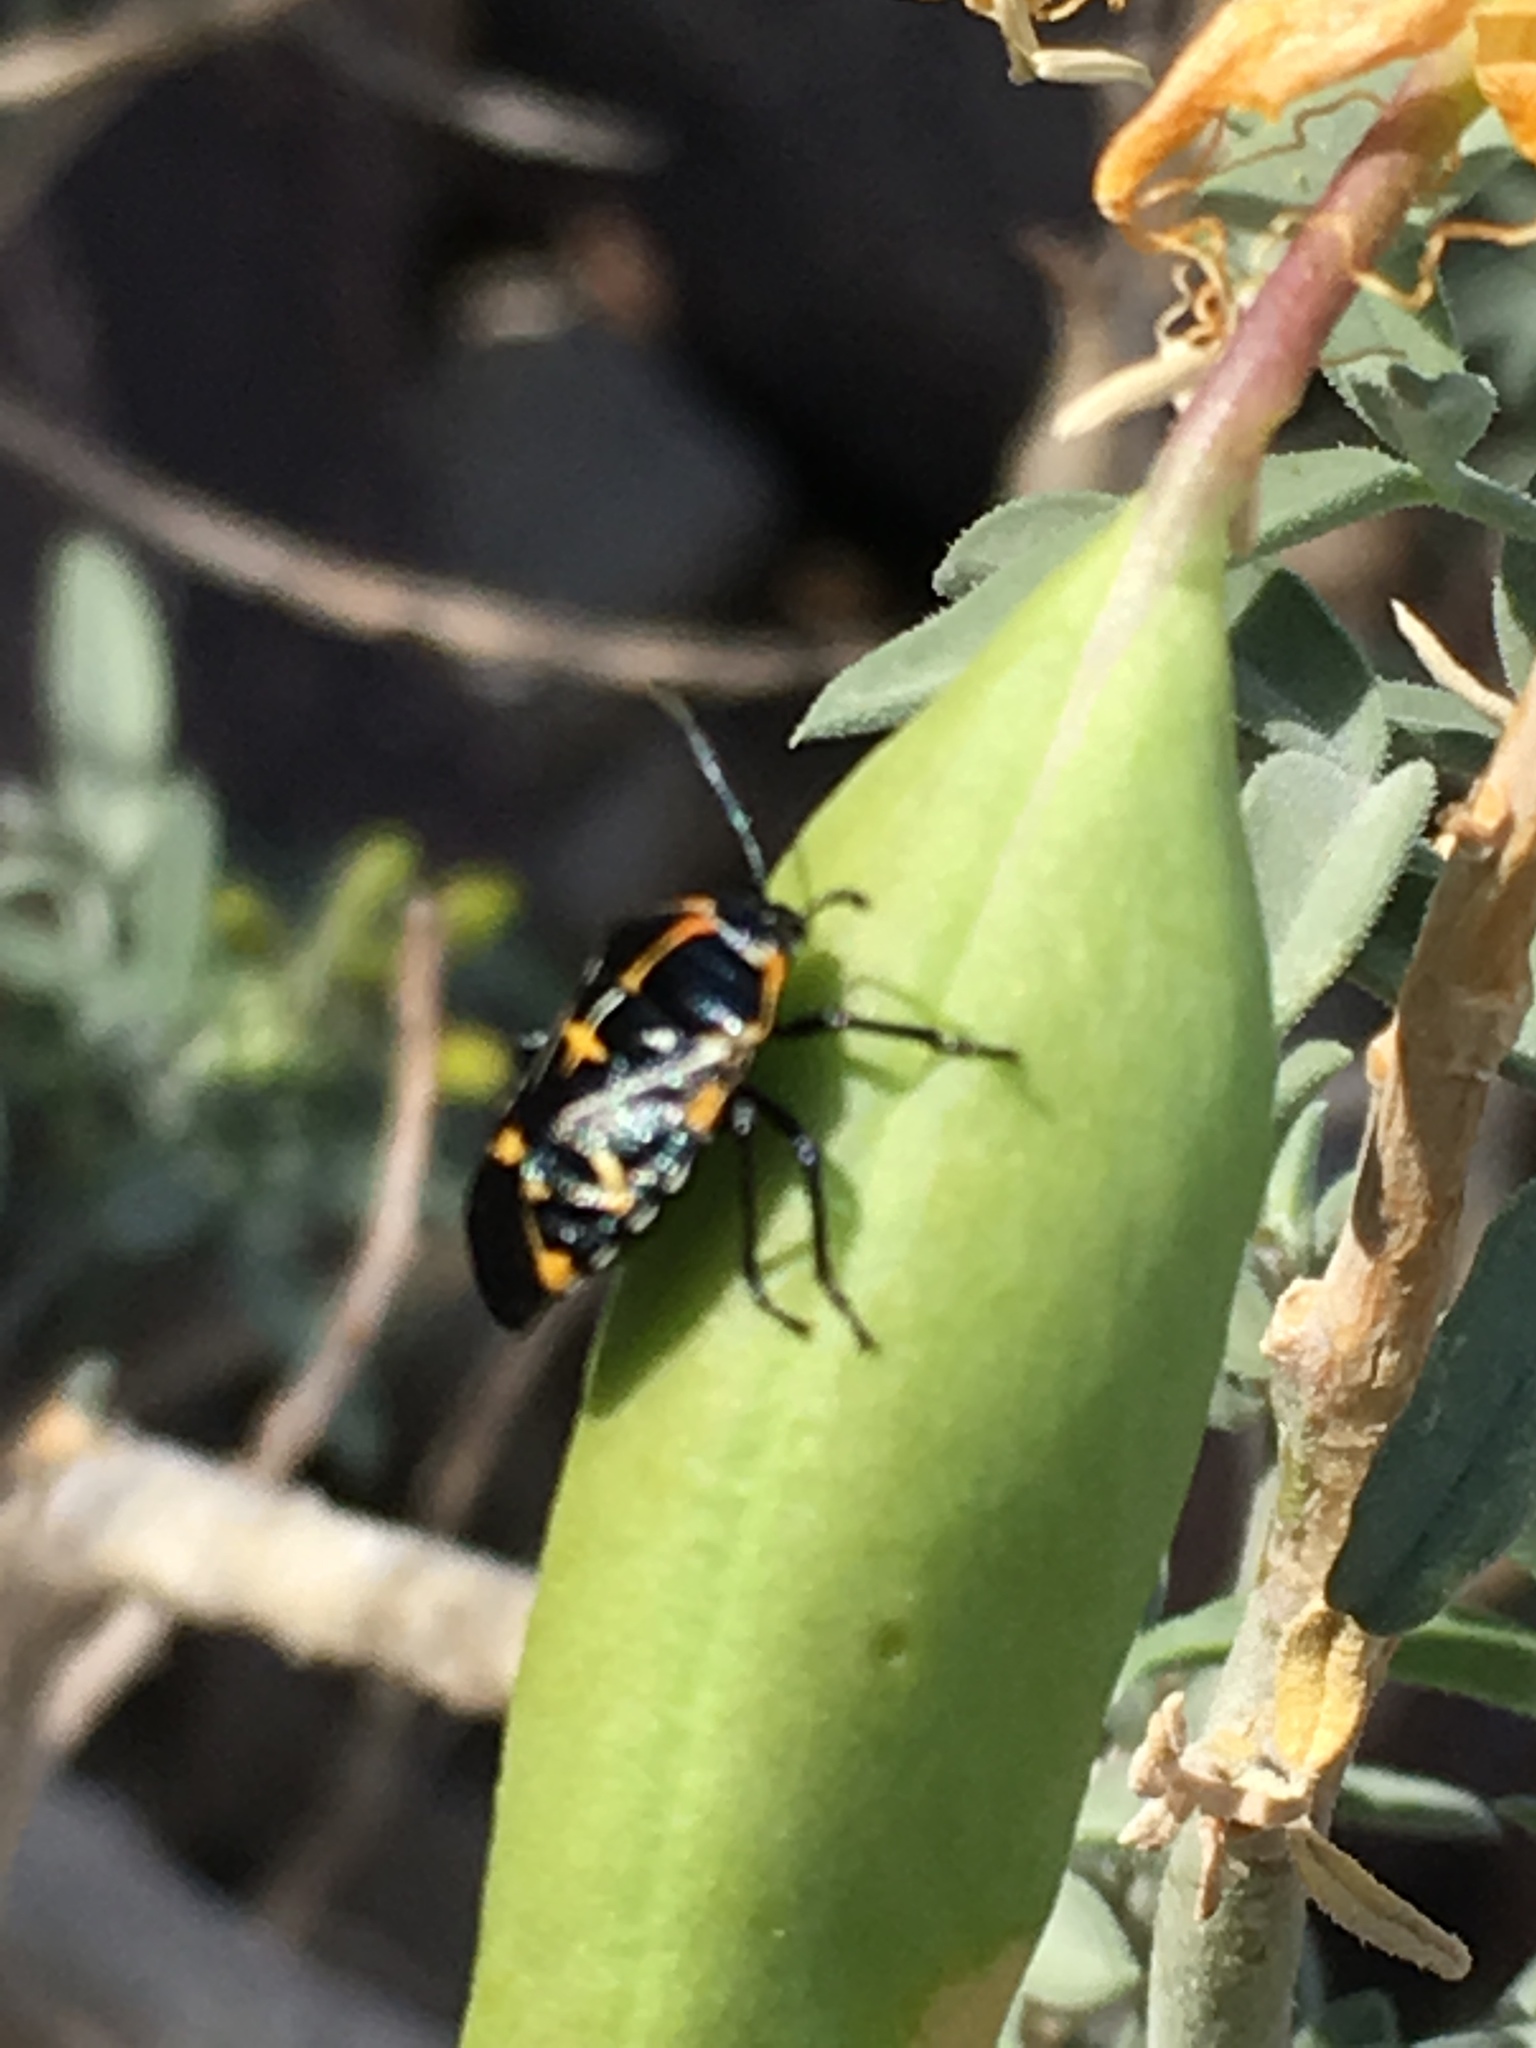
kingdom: Plantae
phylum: Tracheophyta
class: Magnoliopsida
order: Brassicales
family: Cleomaceae
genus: Cleomella
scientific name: Cleomella arborea
